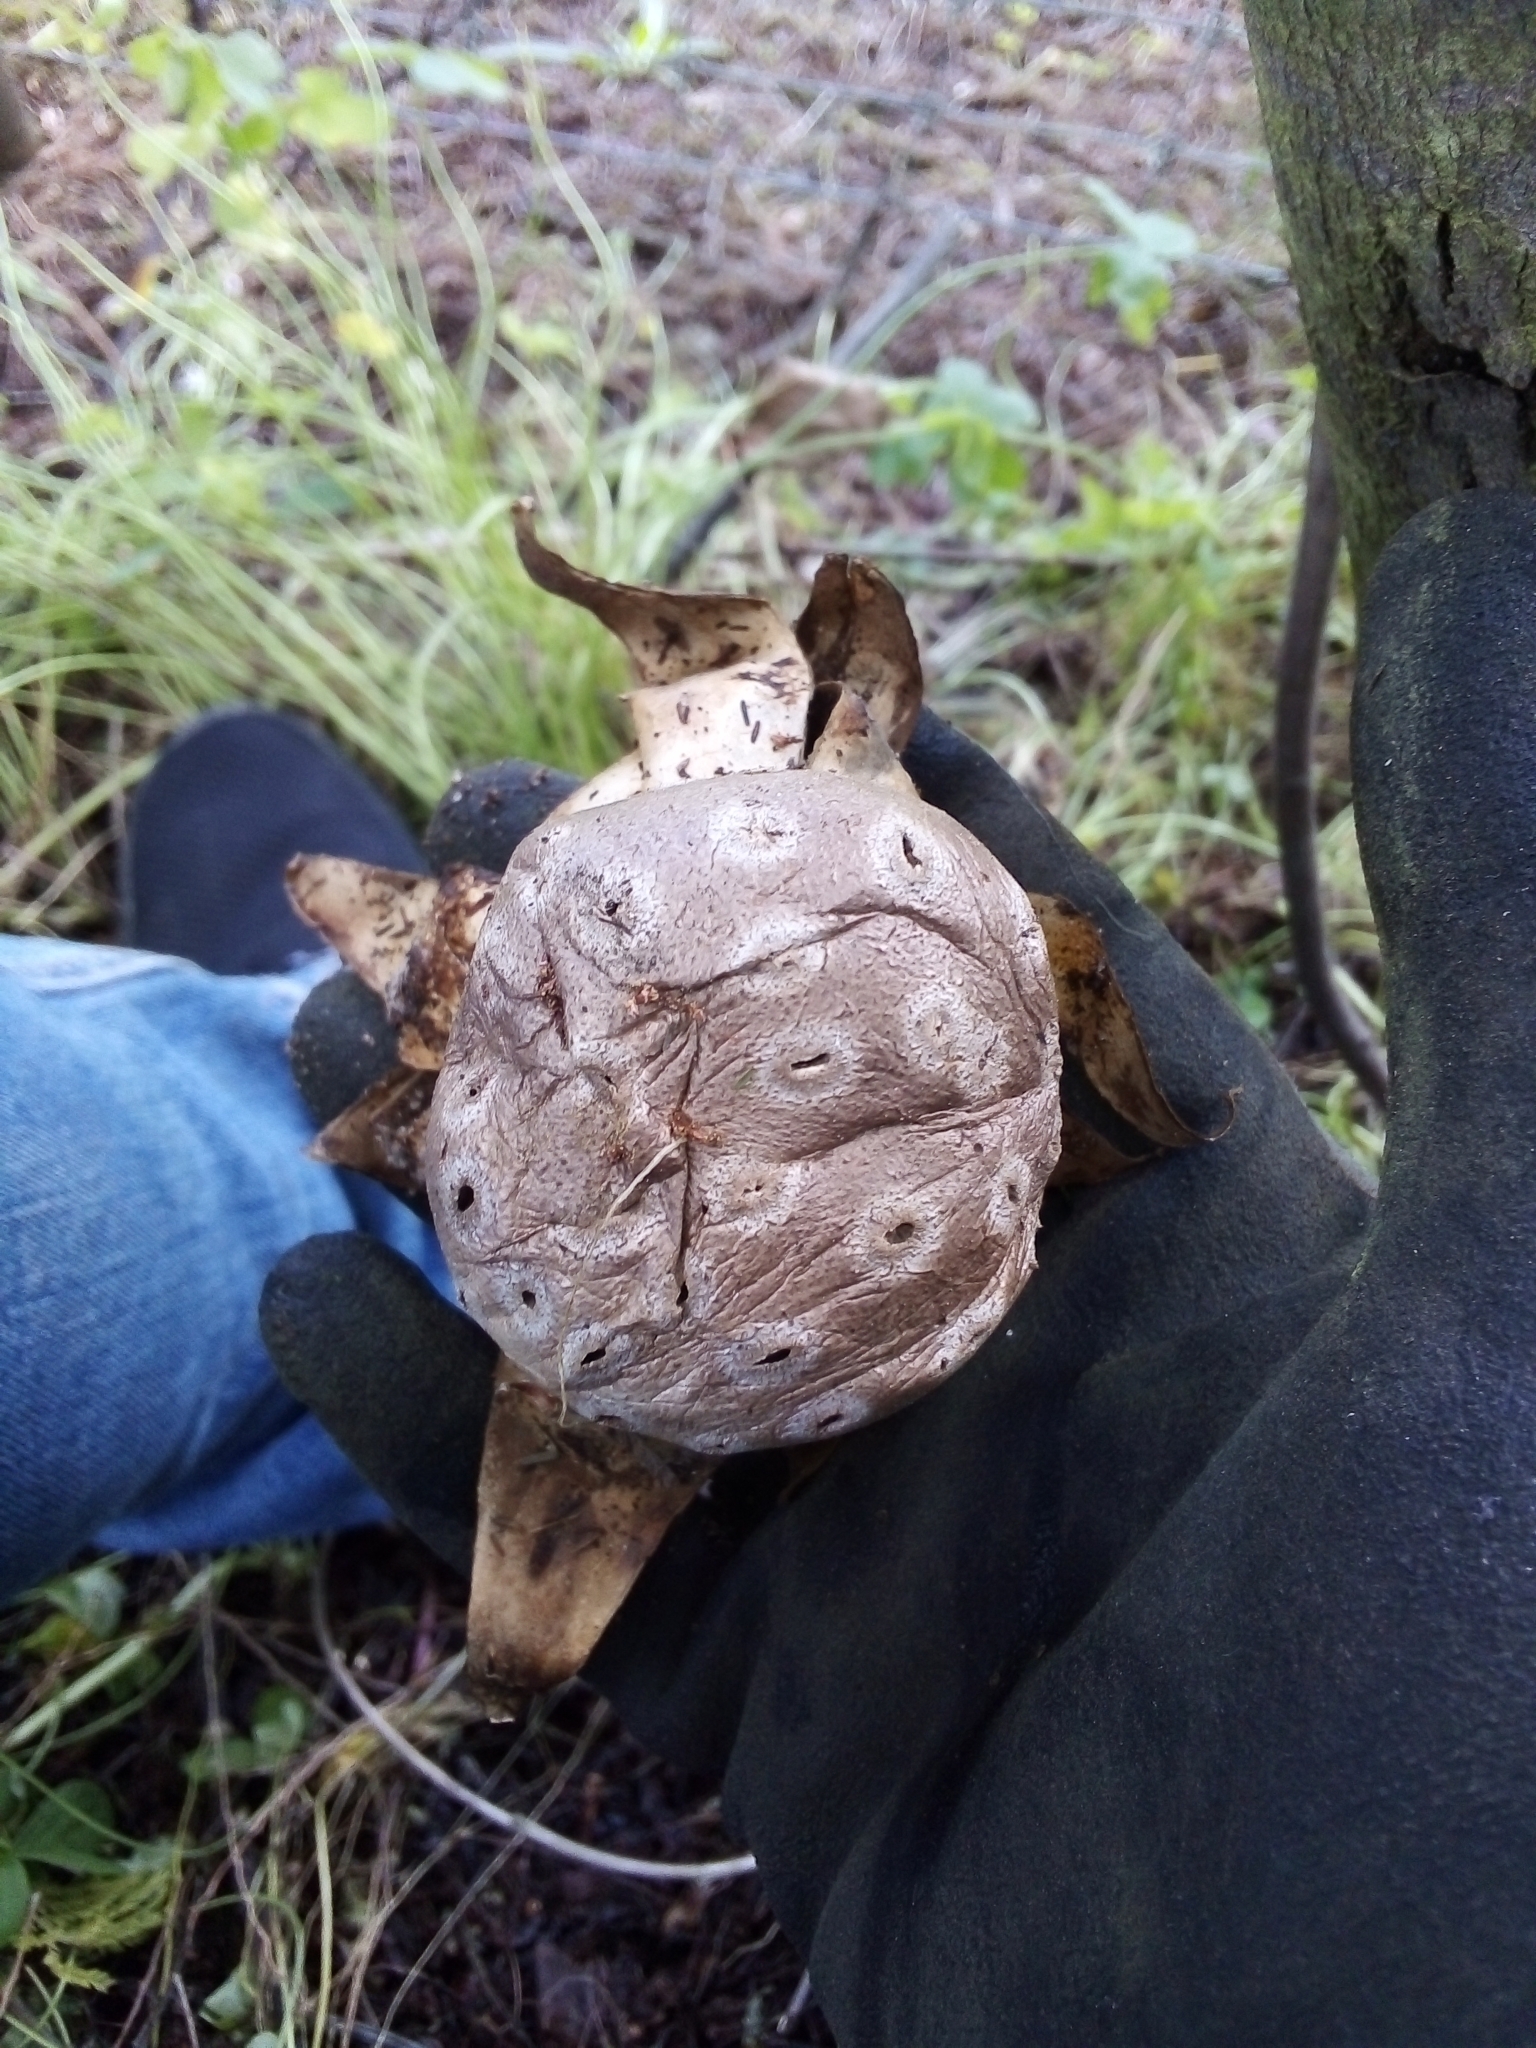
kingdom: Fungi
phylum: Basidiomycota
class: Agaricomycetes
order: Geastrales
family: Geastraceae
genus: Myriostoma
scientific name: Myriostoma coliforme
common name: Pepper pot
